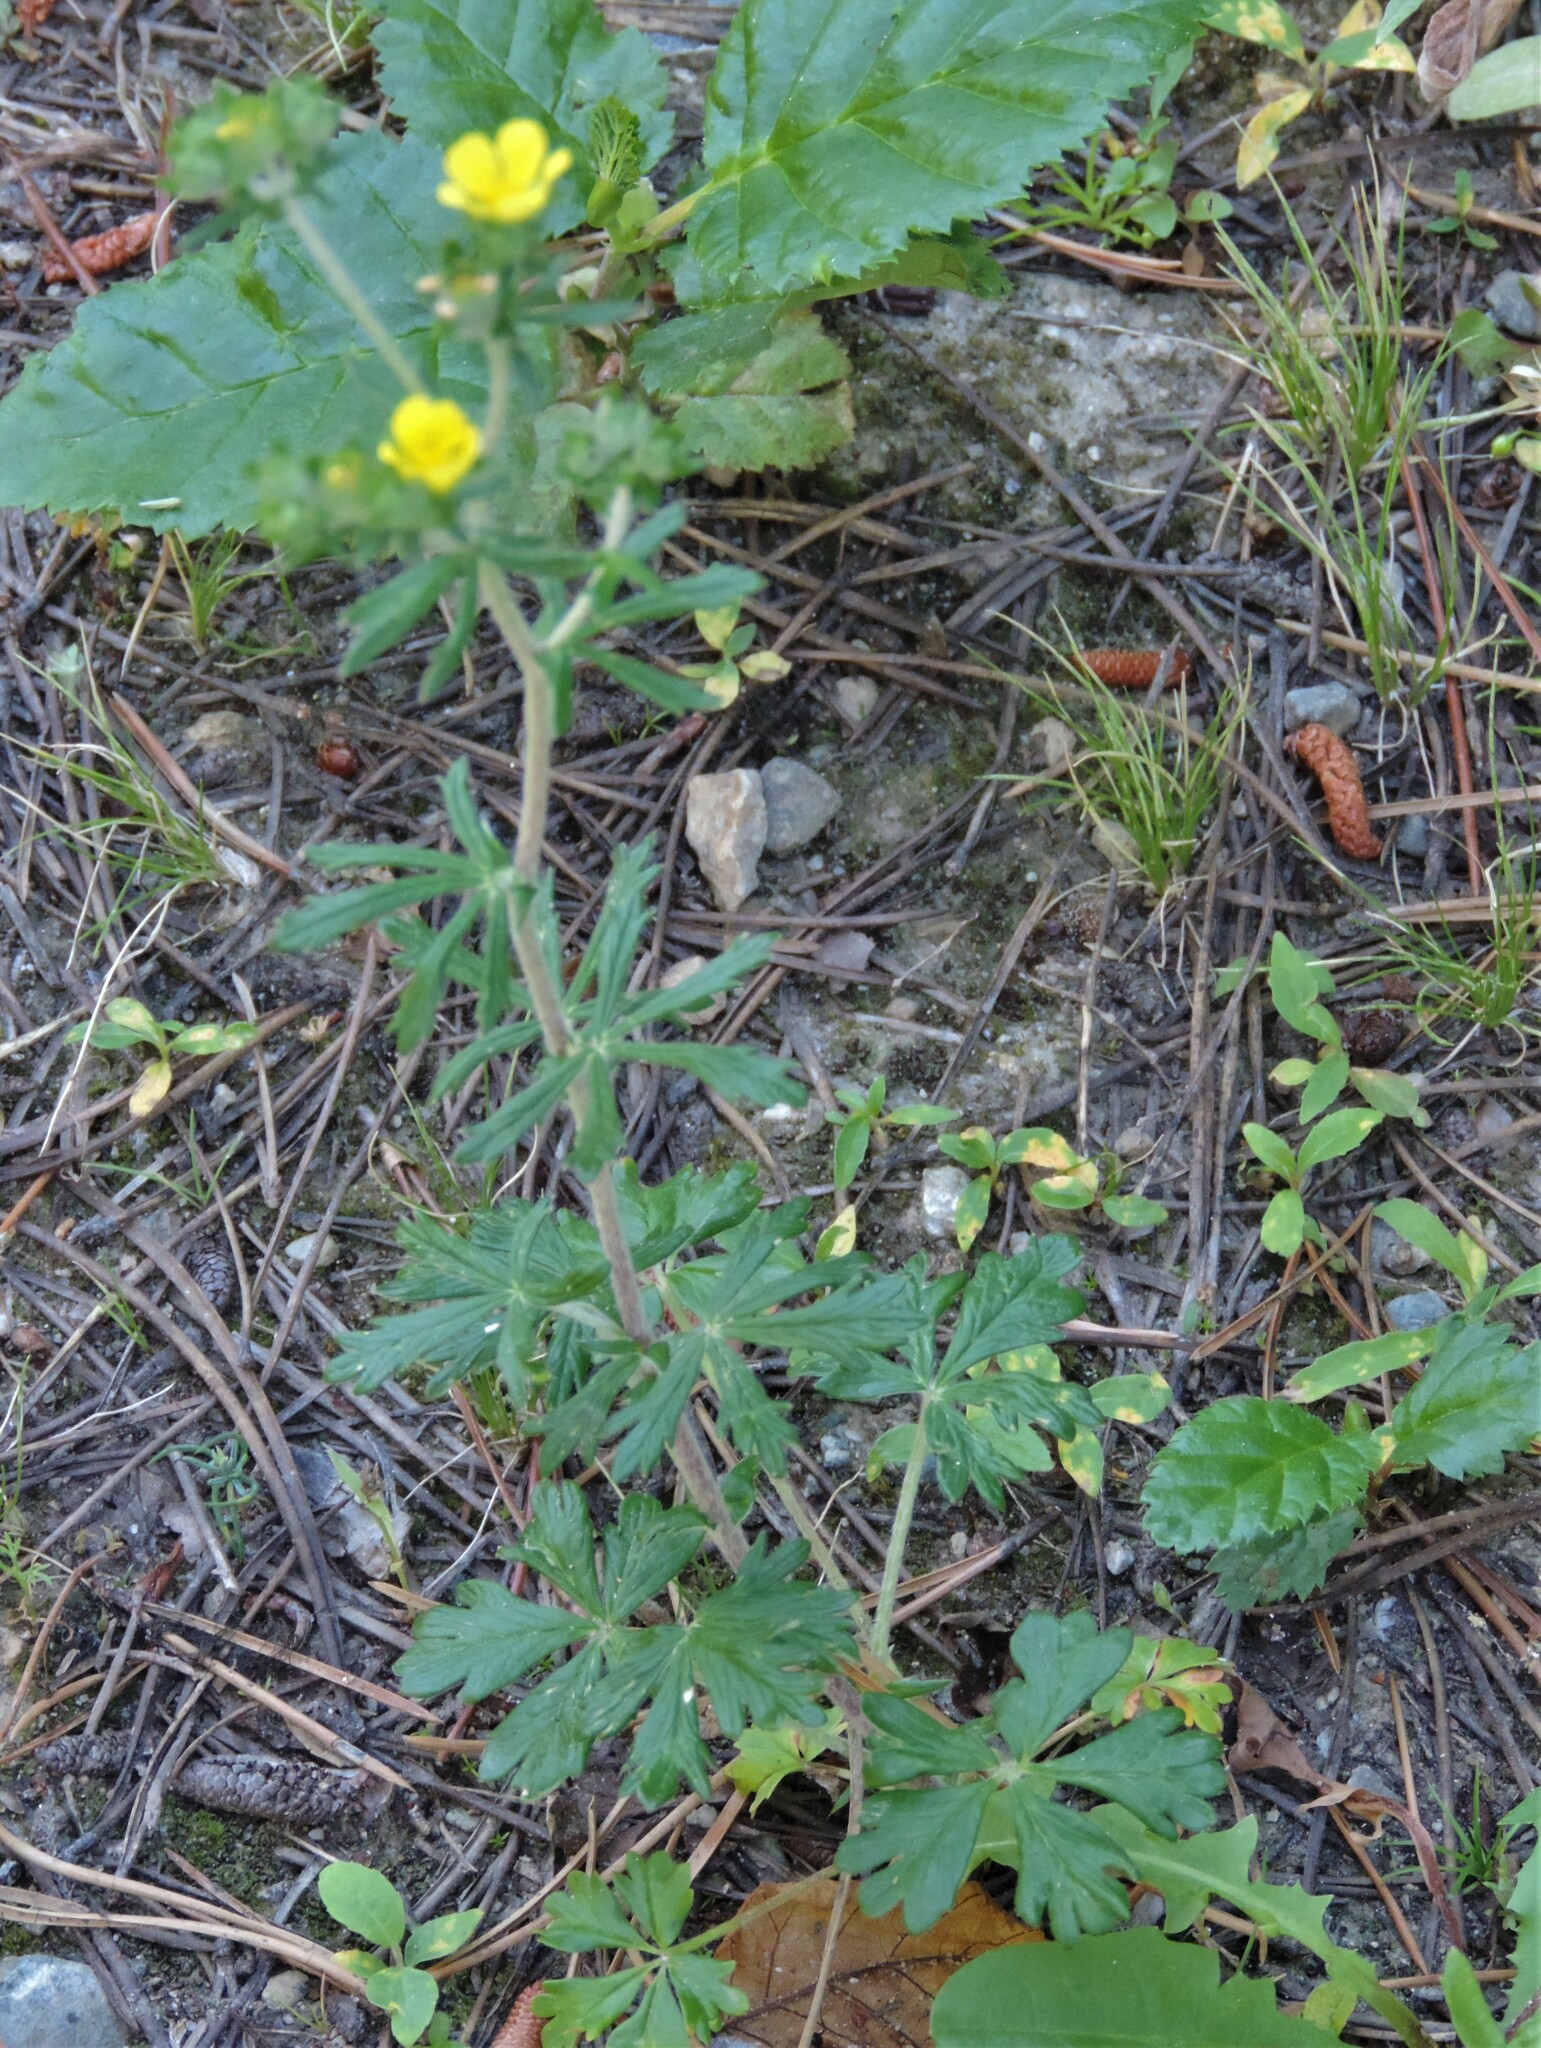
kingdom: Plantae
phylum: Tracheophyta
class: Magnoliopsida
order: Rosales
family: Rosaceae
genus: Potentilla
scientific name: Potentilla argentea
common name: Hoary cinquefoil
